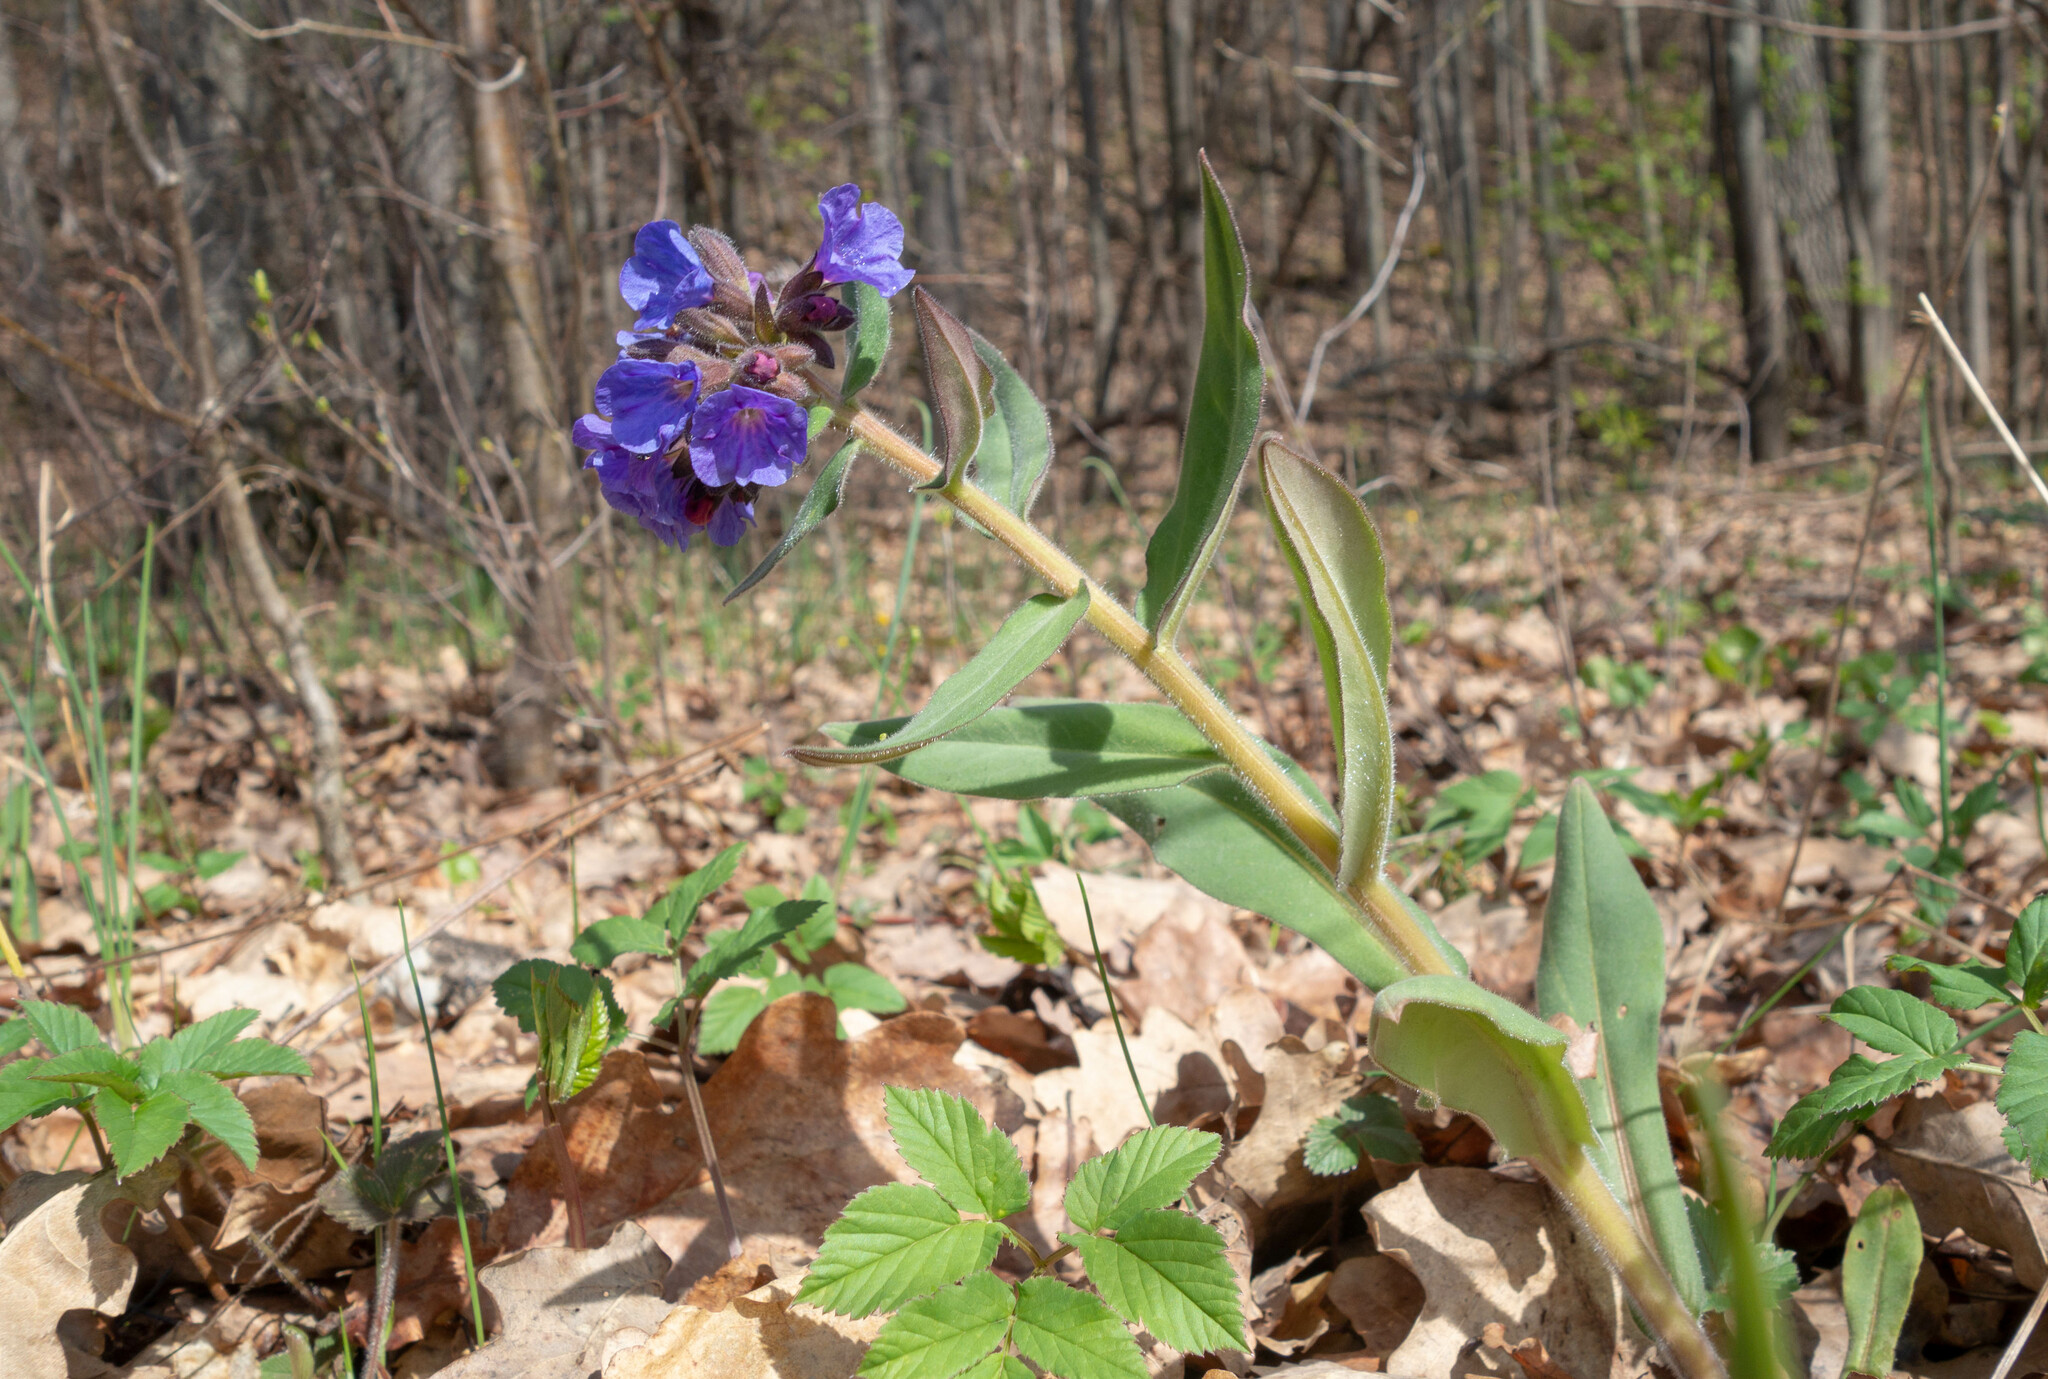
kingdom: Plantae
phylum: Tracheophyta
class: Magnoliopsida
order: Boraginales
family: Boraginaceae
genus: Pulmonaria
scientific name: Pulmonaria mollis
